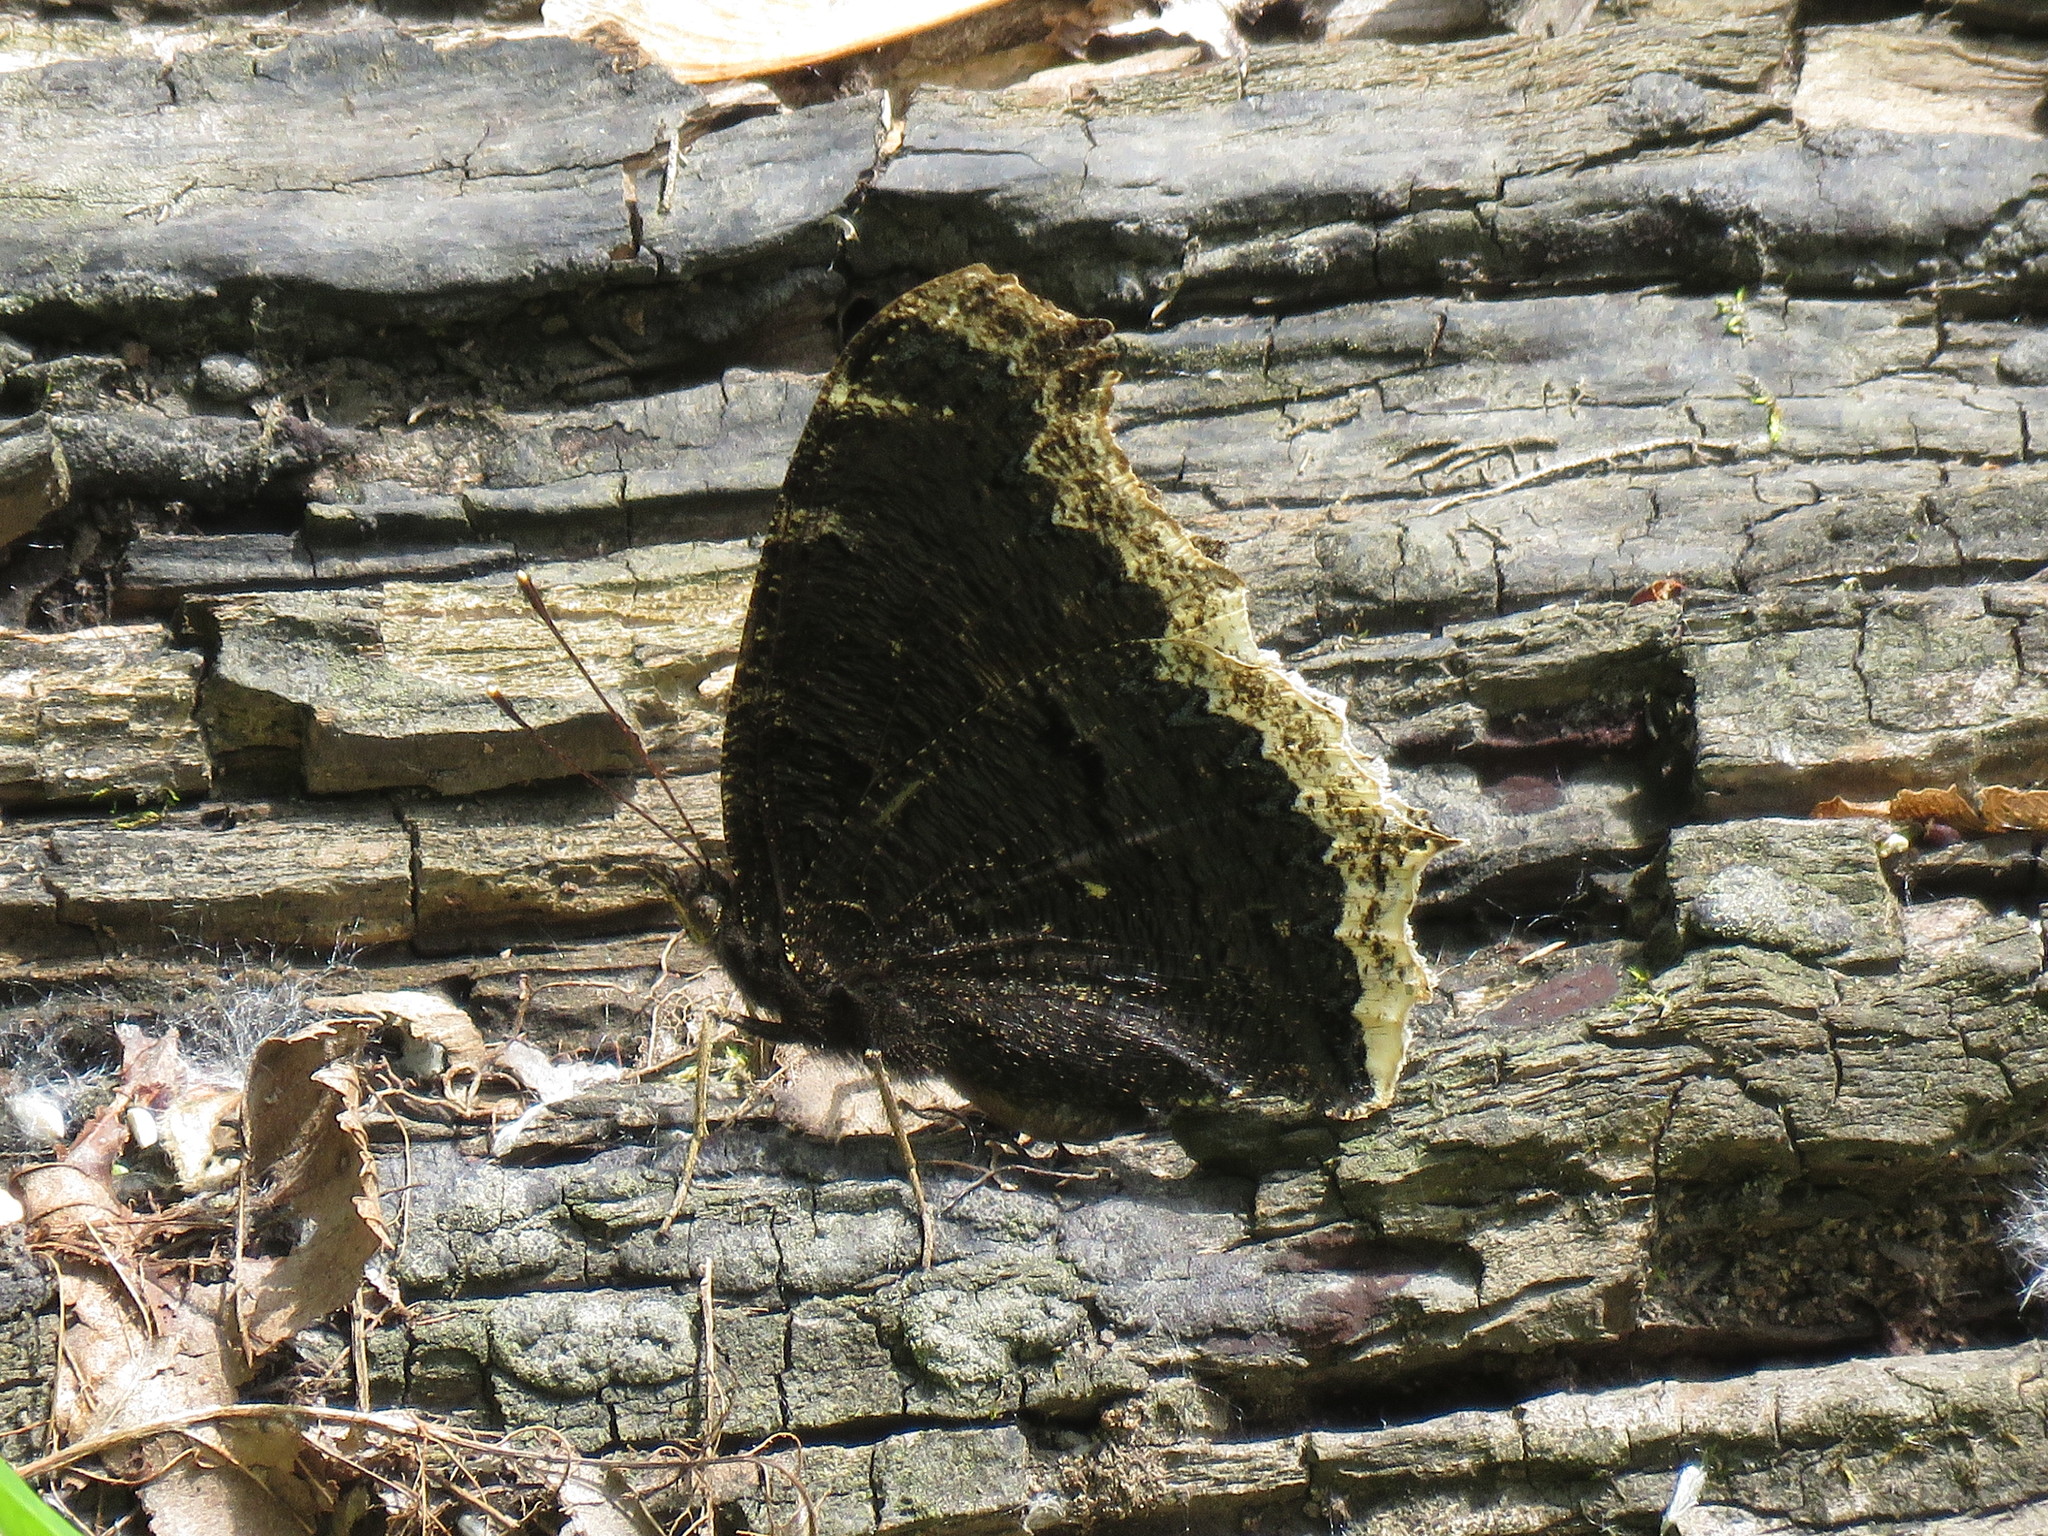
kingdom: Animalia
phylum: Arthropoda
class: Insecta
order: Lepidoptera
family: Nymphalidae
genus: Nymphalis
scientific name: Nymphalis antiopa
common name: Camberwell beauty
